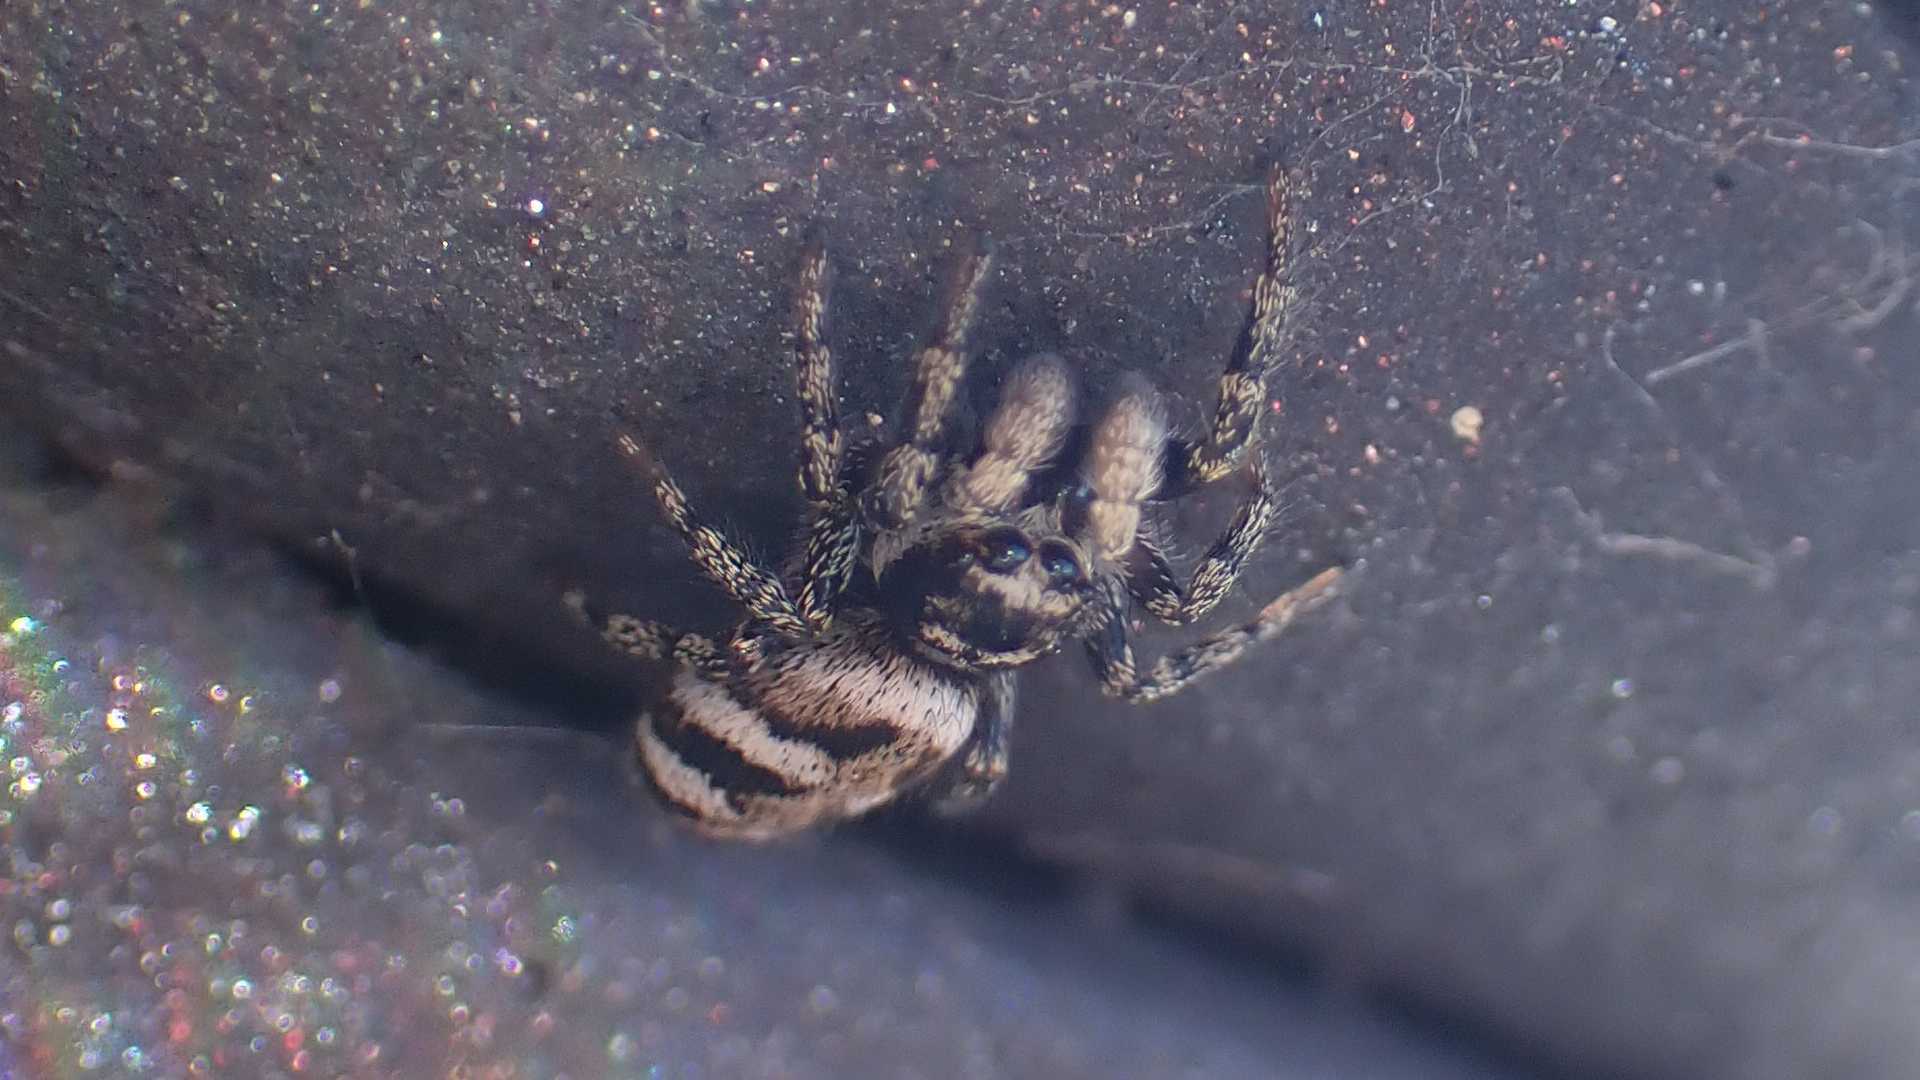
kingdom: Animalia
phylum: Arthropoda
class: Arachnida
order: Araneae
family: Salticidae
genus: Salticus
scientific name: Salticus scenicus
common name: Zebra jumper
